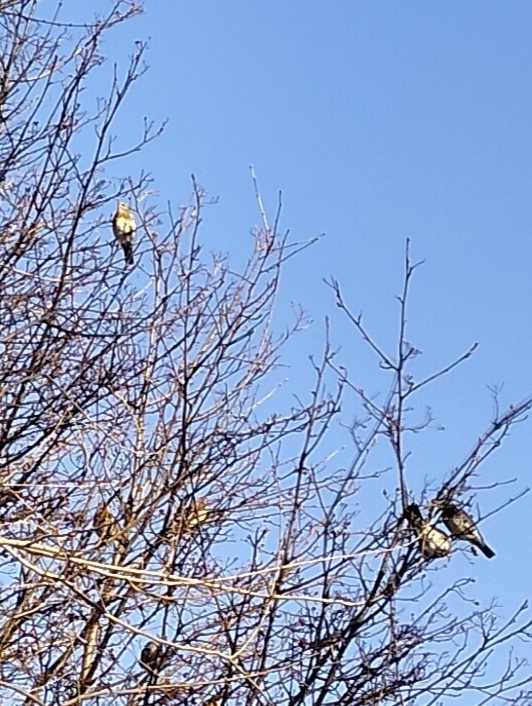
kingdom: Animalia
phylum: Chordata
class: Aves
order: Passeriformes
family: Turdidae
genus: Turdus
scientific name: Turdus pilaris
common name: Fieldfare
